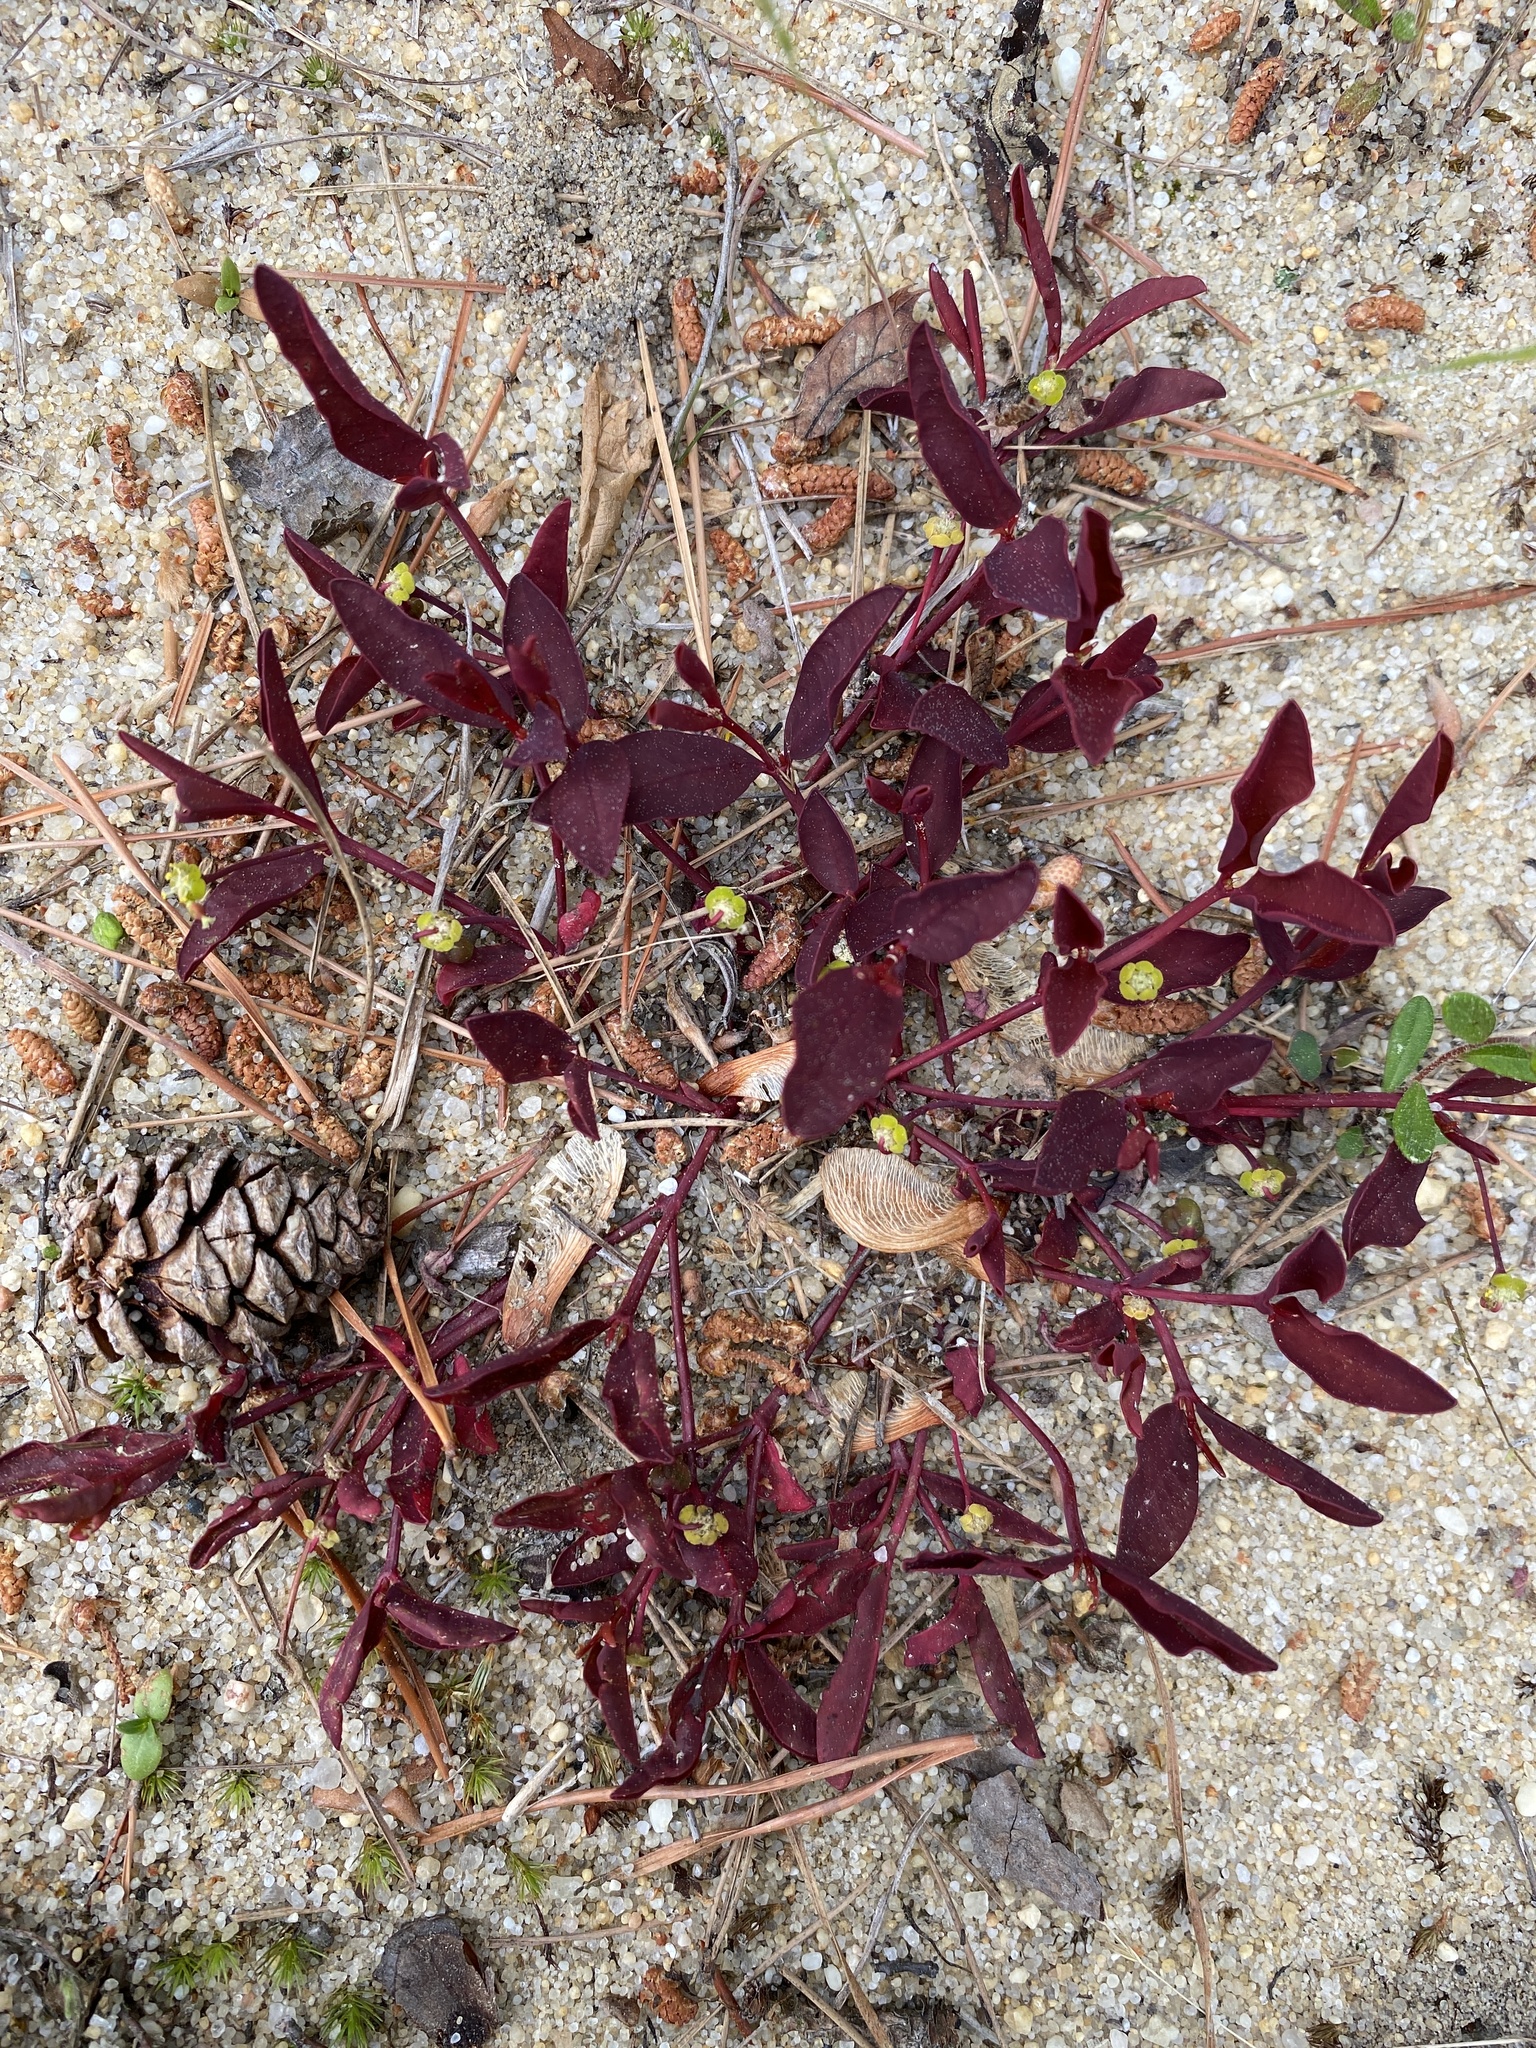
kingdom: Plantae
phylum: Tracheophyta
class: Magnoliopsida
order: Malpighiales
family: Euphorbiaceae
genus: Euphorbia
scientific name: Euphorbia ipecacuanhae
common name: Carolina ipecac
